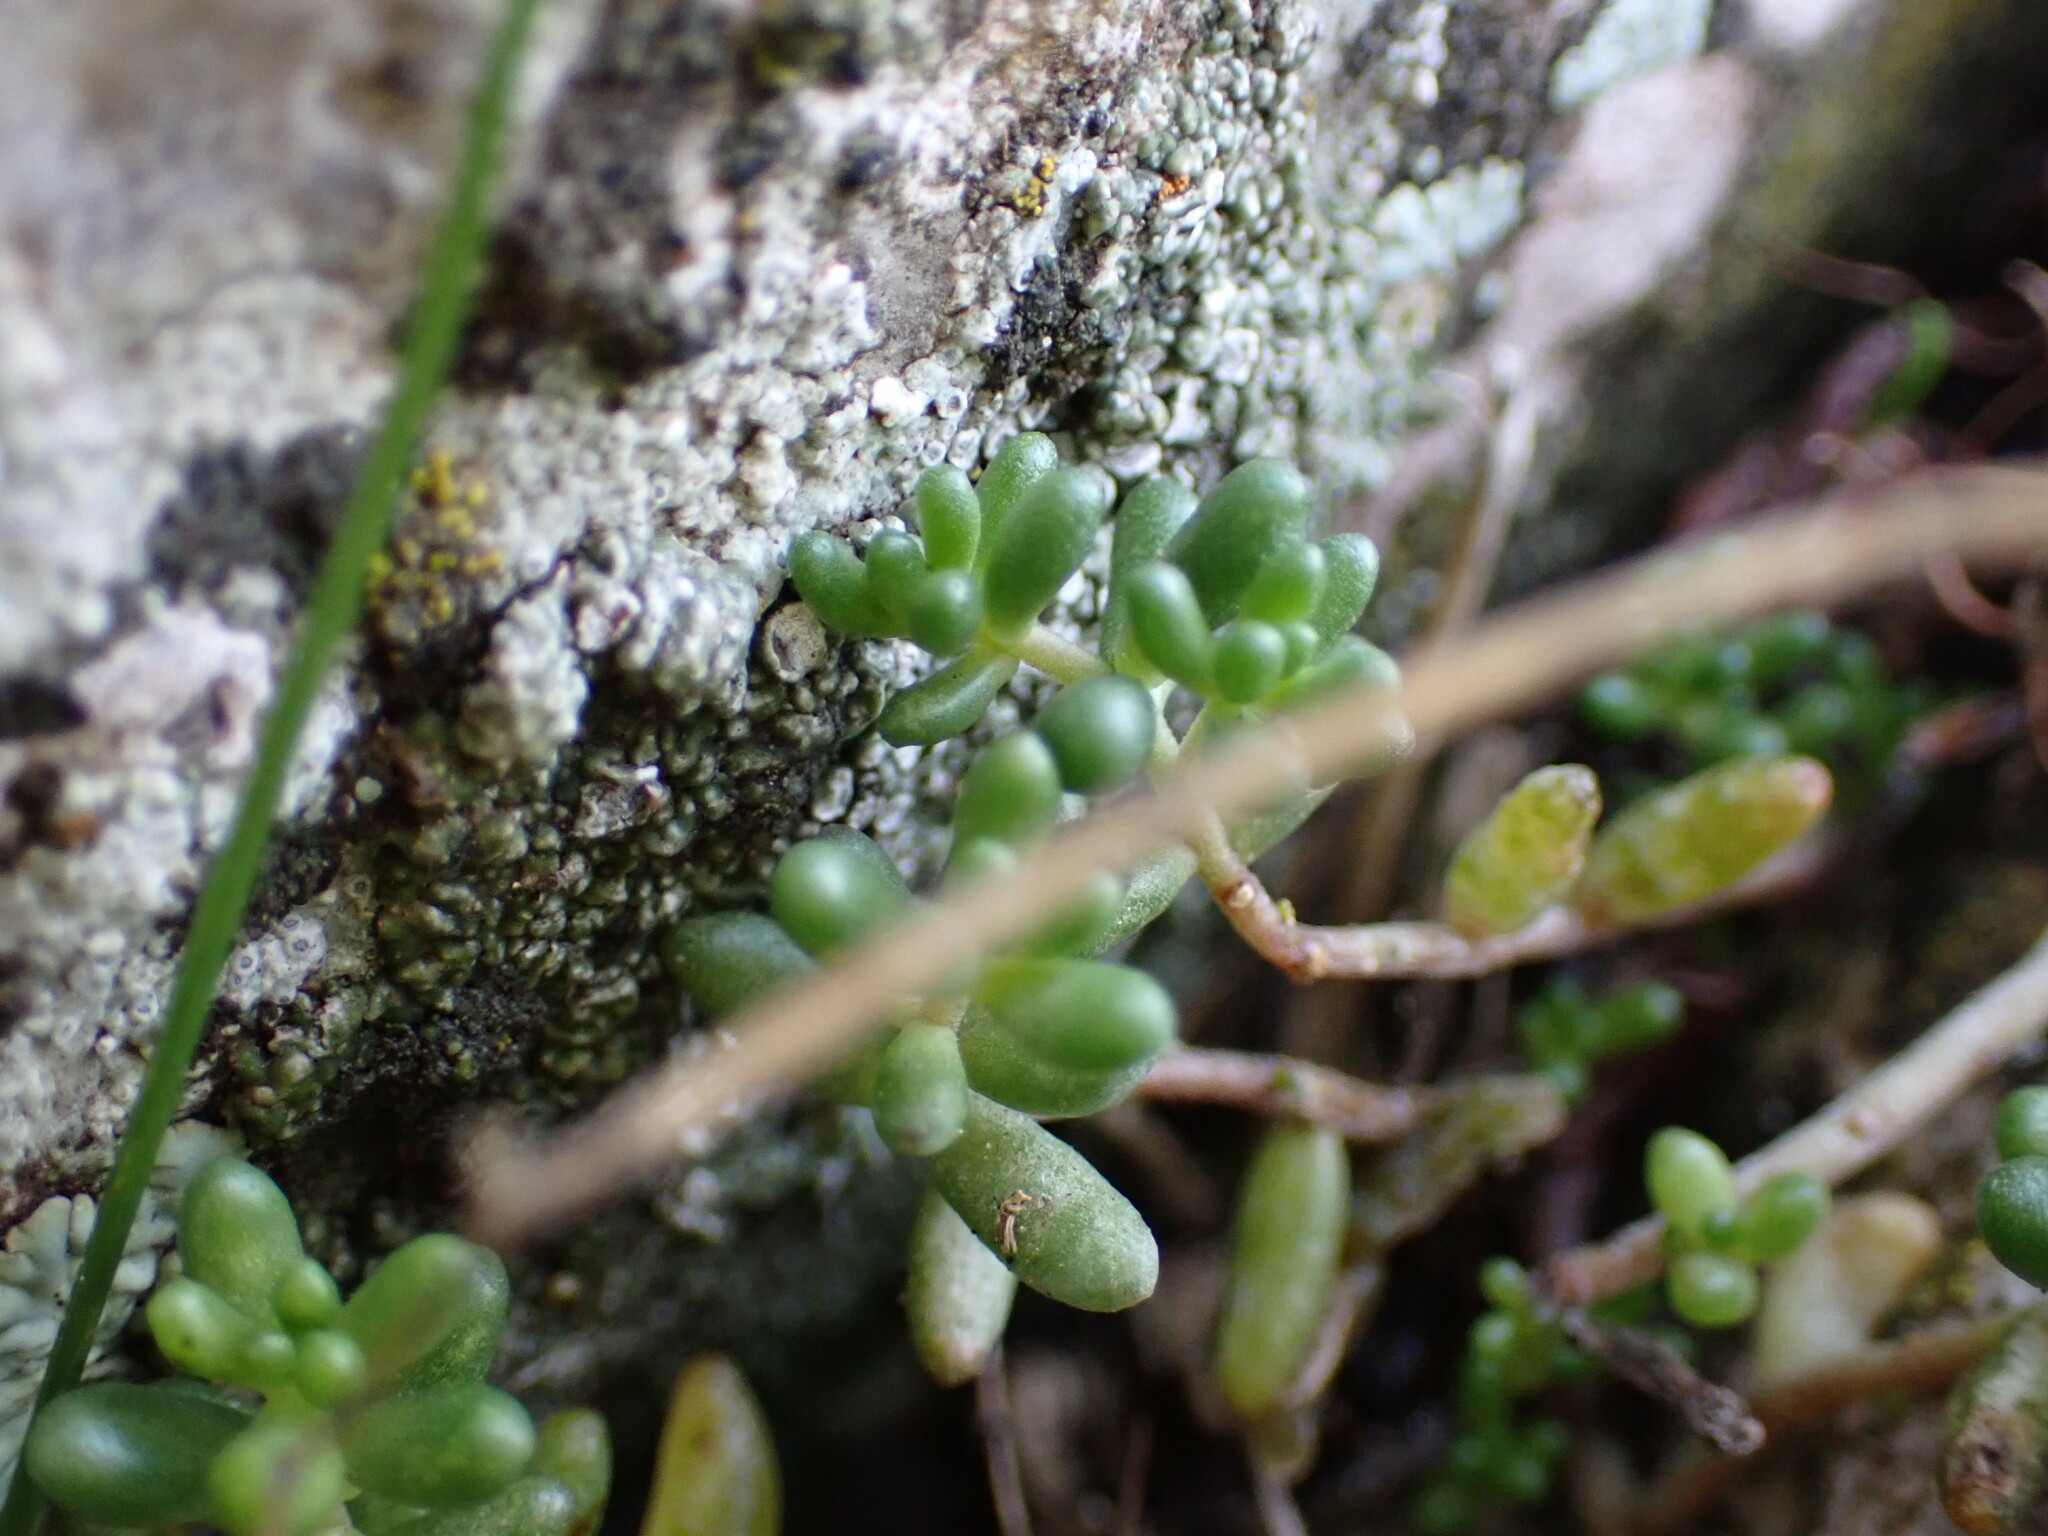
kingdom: Plantae
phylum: Tracheophyta
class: Magnoliopsida
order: Saxifragales
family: Crassulaceae
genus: Sedum
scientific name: Sedum album
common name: White stonecrop
